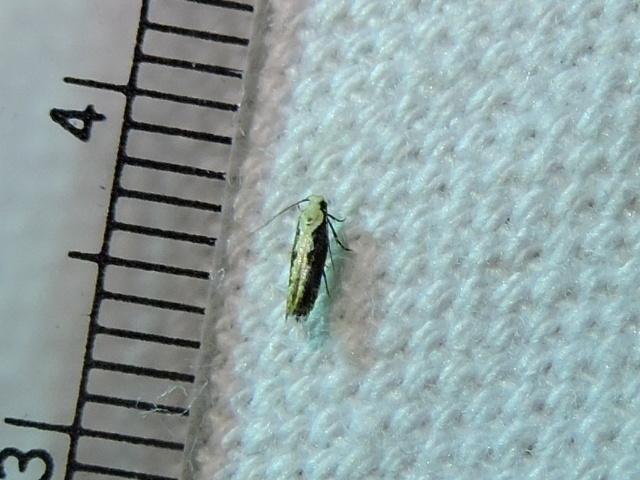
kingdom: Animalia
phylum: Arthropoda
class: Insecta
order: Lepidoptera
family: Gelechiidae
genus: Agnippe
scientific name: Agnippe leuconota
